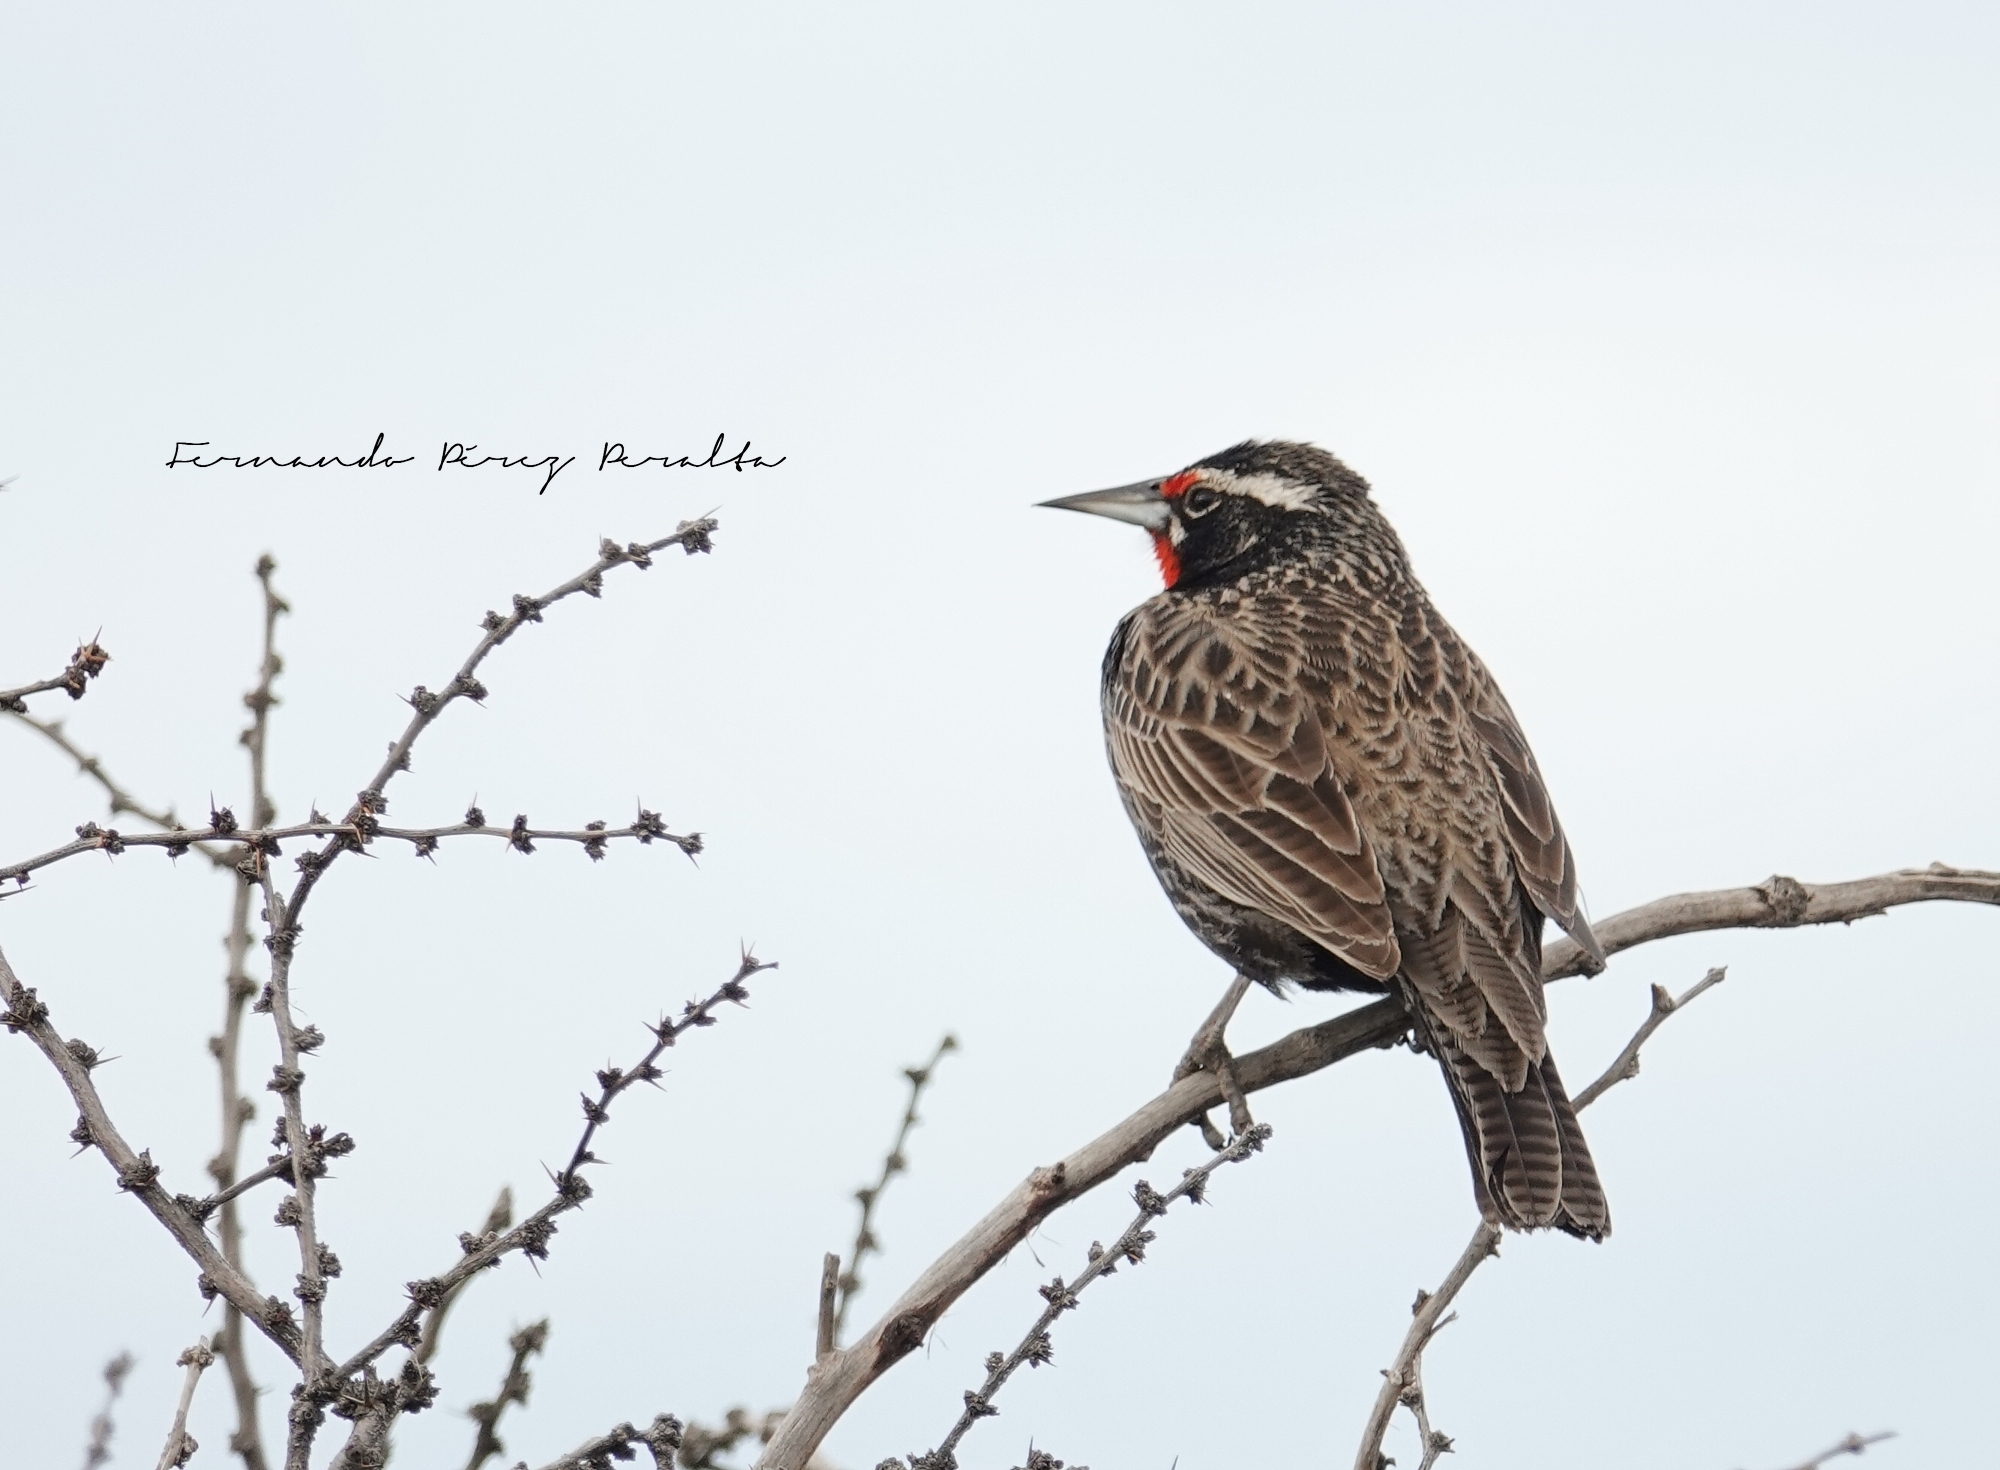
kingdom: Animalia
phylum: Chordata
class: Aves
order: Passeriformes
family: Icteridae
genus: Sturnella
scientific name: Sturnella loyca
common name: Long-tailed meadowlark
